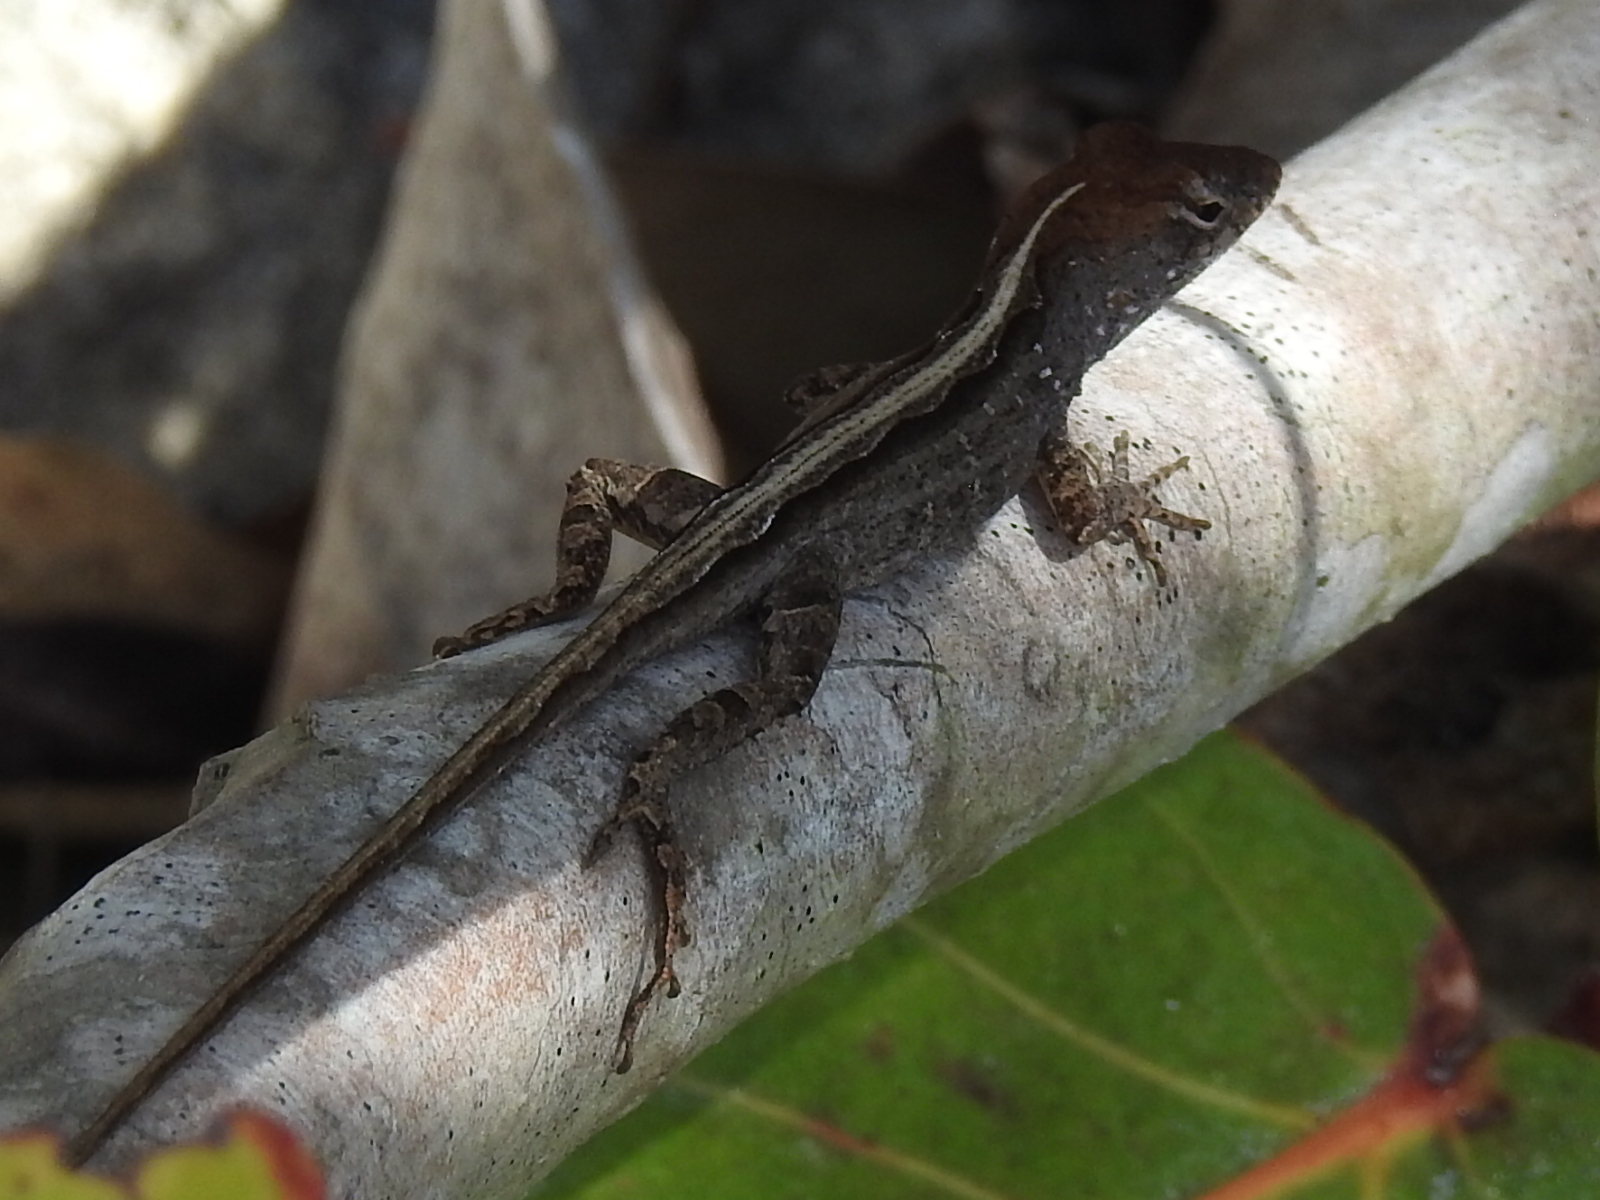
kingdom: Animalia
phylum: Chordata
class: Squamata
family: Dactyloidae
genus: Anolis
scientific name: Anolis sagrei
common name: Brown anole
